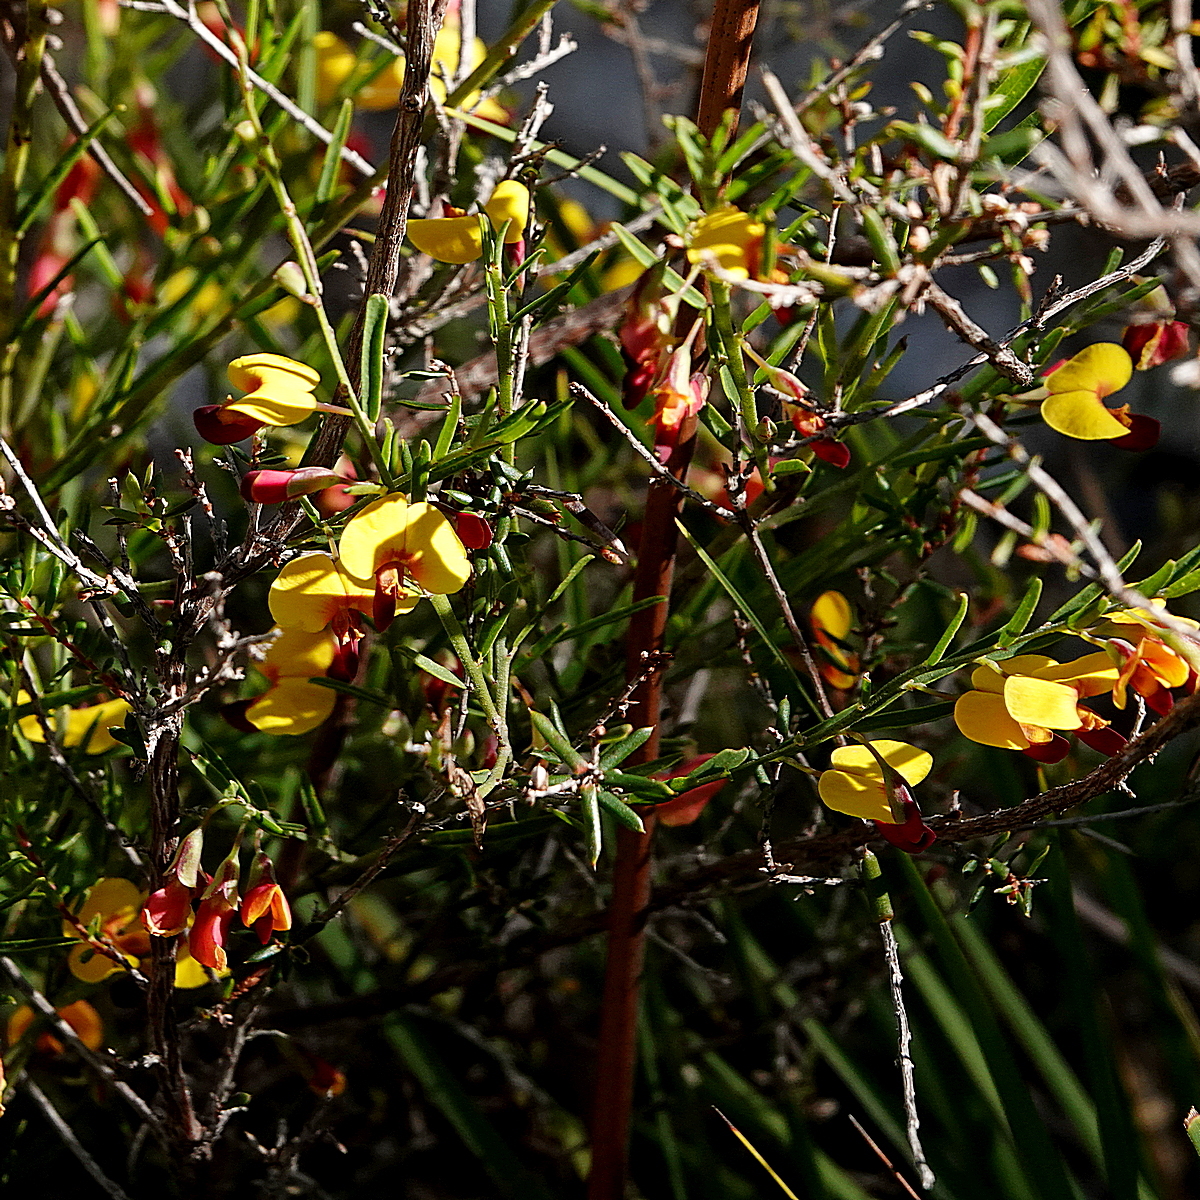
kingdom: Plantae
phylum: Tracheophyta
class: Magnoliopsida
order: Fabales
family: Fabaceae
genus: Bossiaea
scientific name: Bossiaea heterophylla
